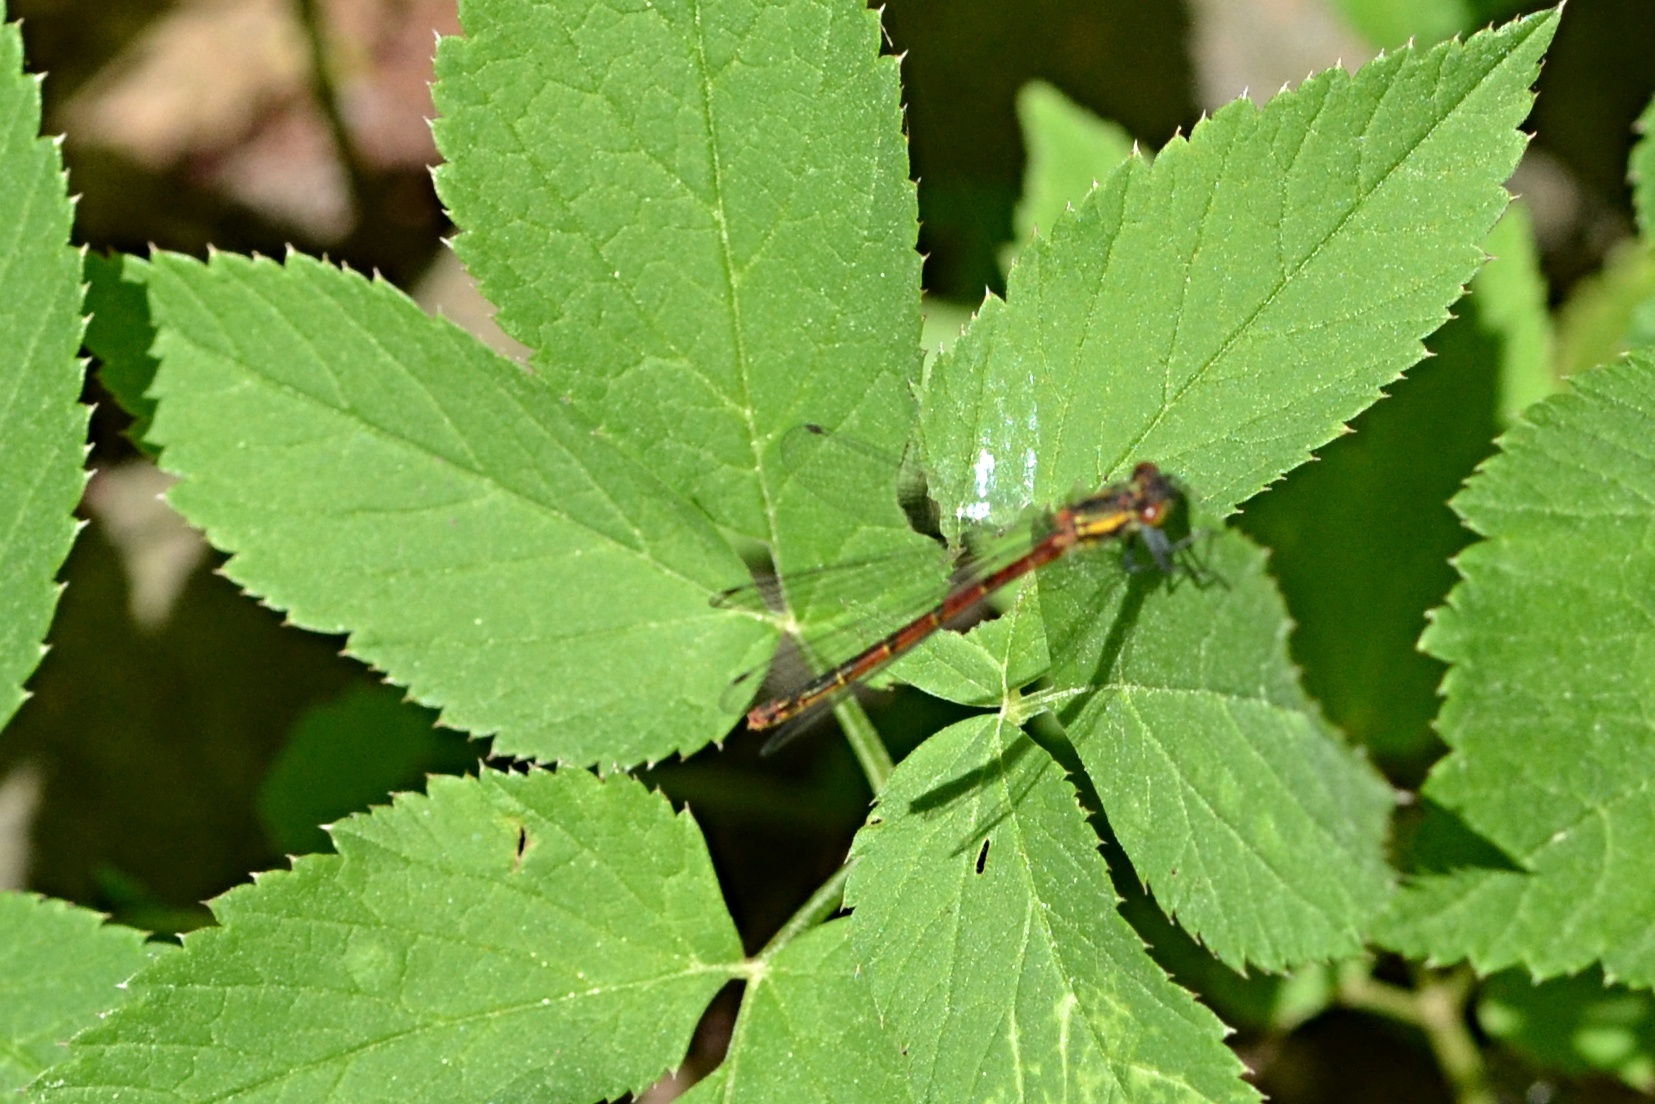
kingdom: Animalia
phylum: Arthropoda
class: Insecta
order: Odonata
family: Coenagrionidae
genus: Pyrrhosoma
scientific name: Pyrrhosoma nymphula
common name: Large red damsel
